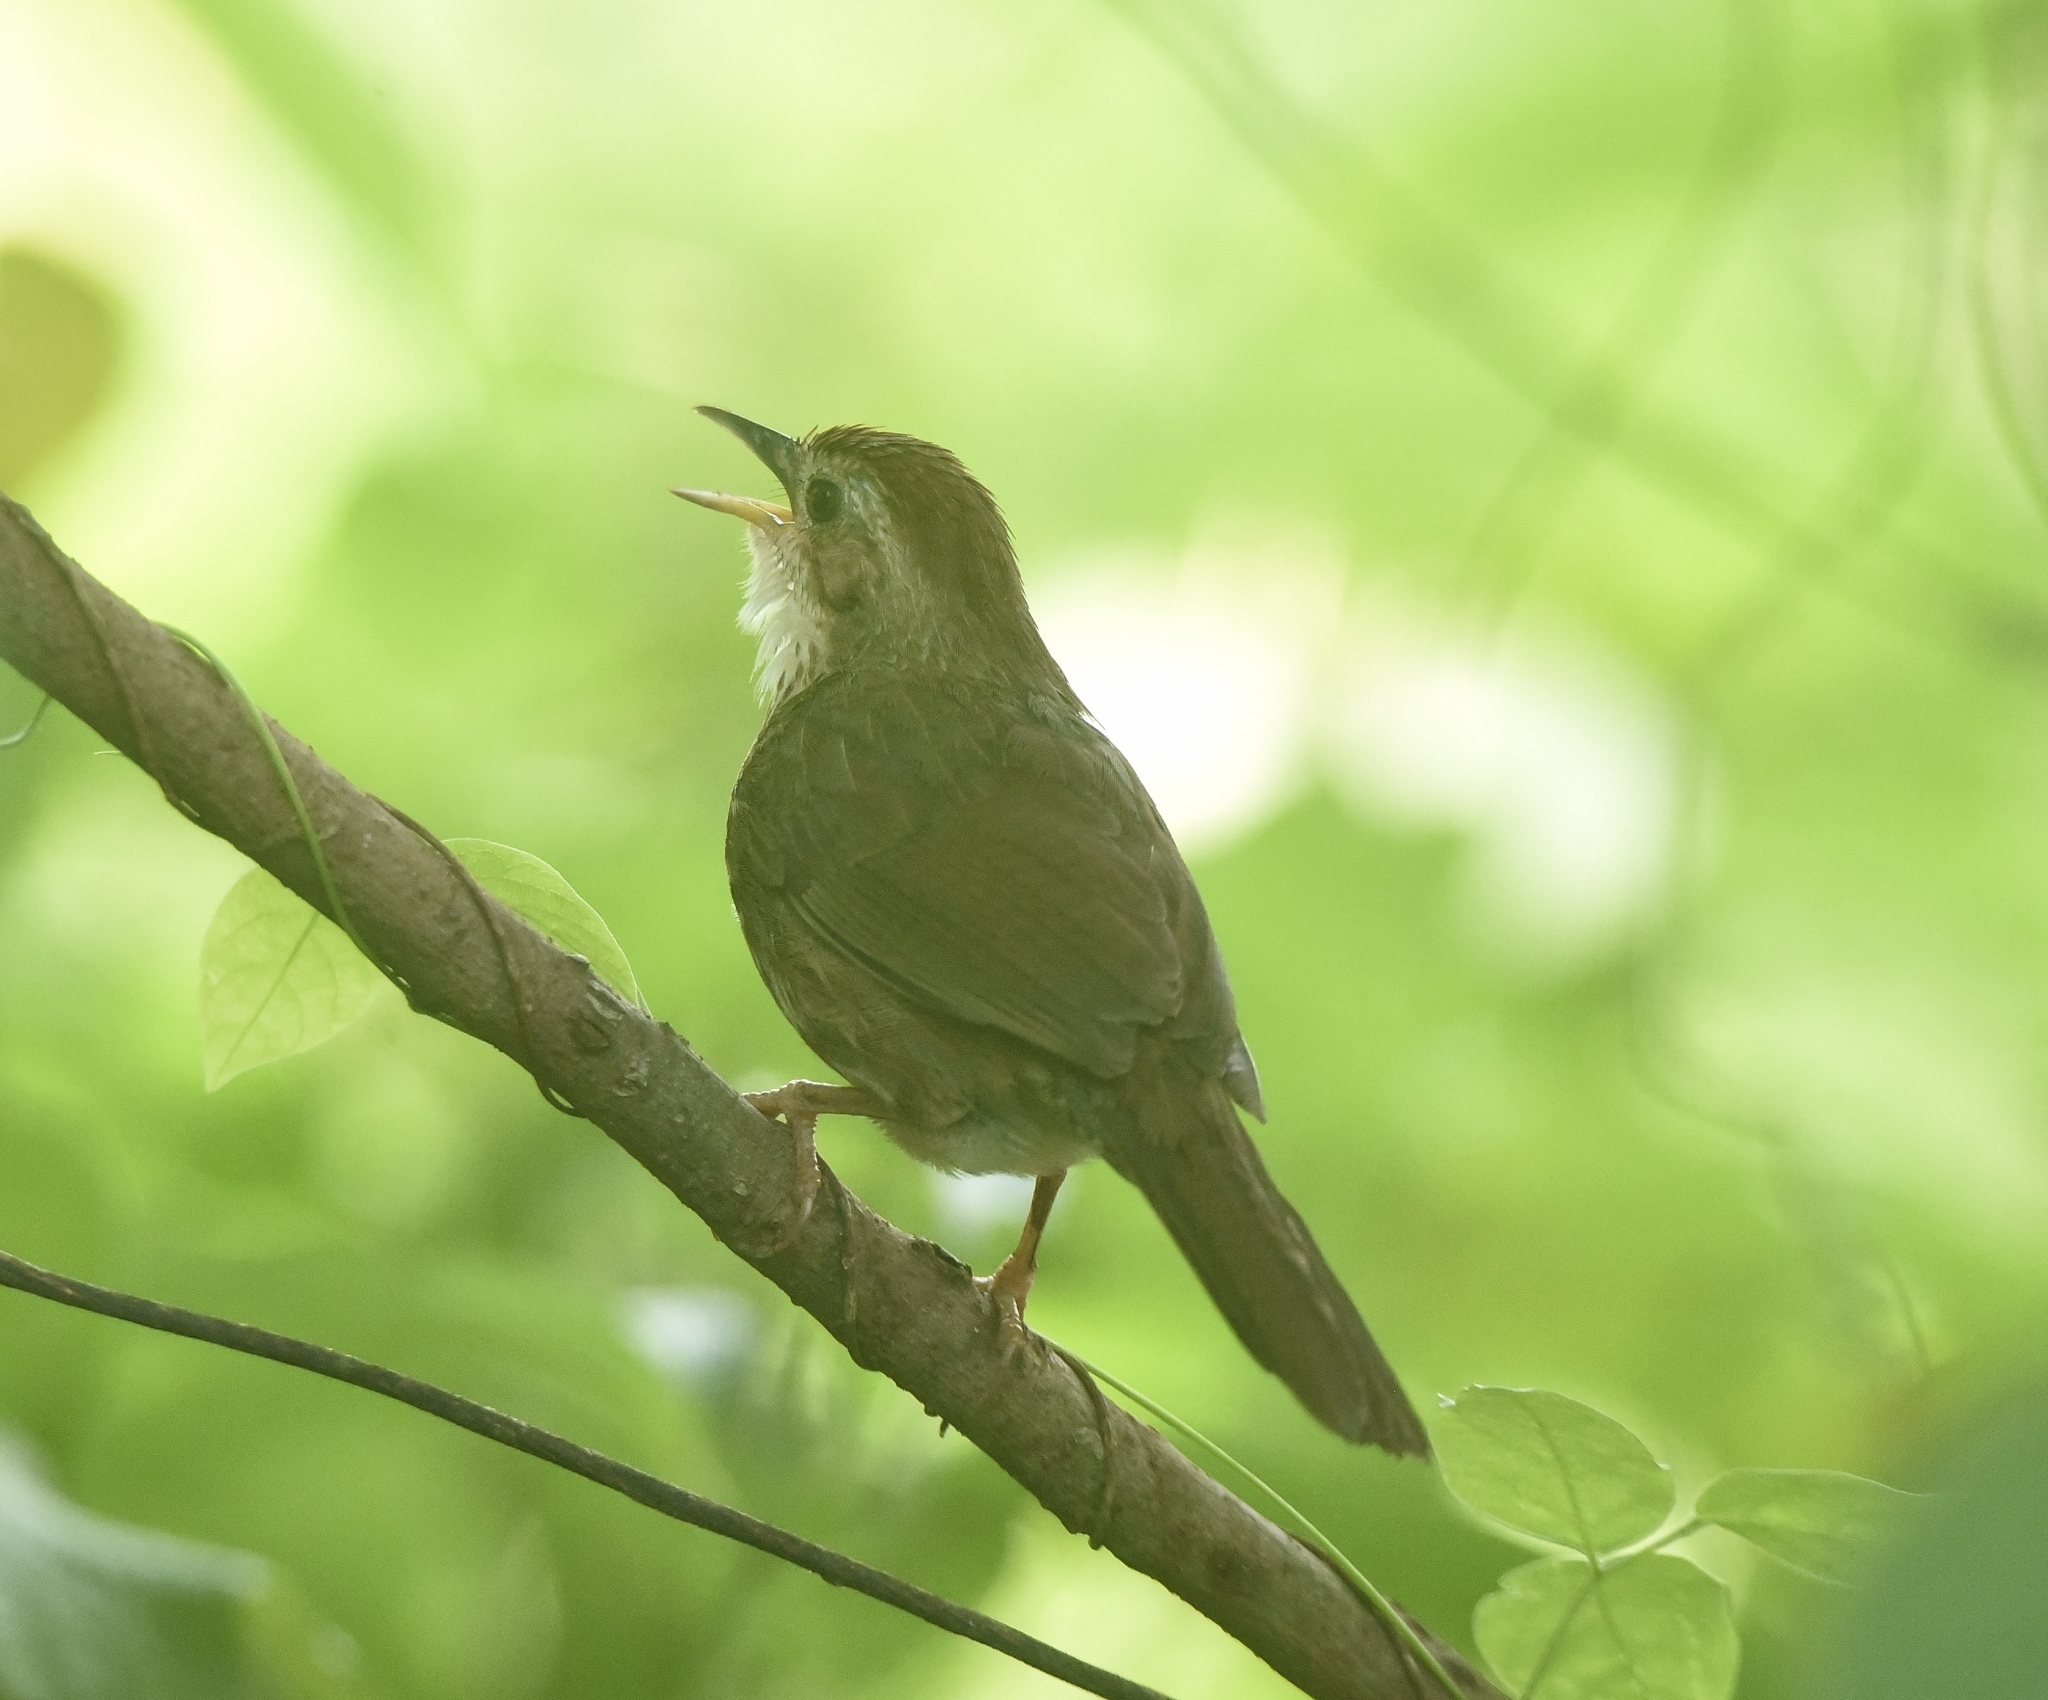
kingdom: Animalia
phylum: Chordata
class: Aves
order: Passeriformes
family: Pellorneidae
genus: Pellorneum
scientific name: Pellorneum ruficeps
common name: Puff-throated babbler
